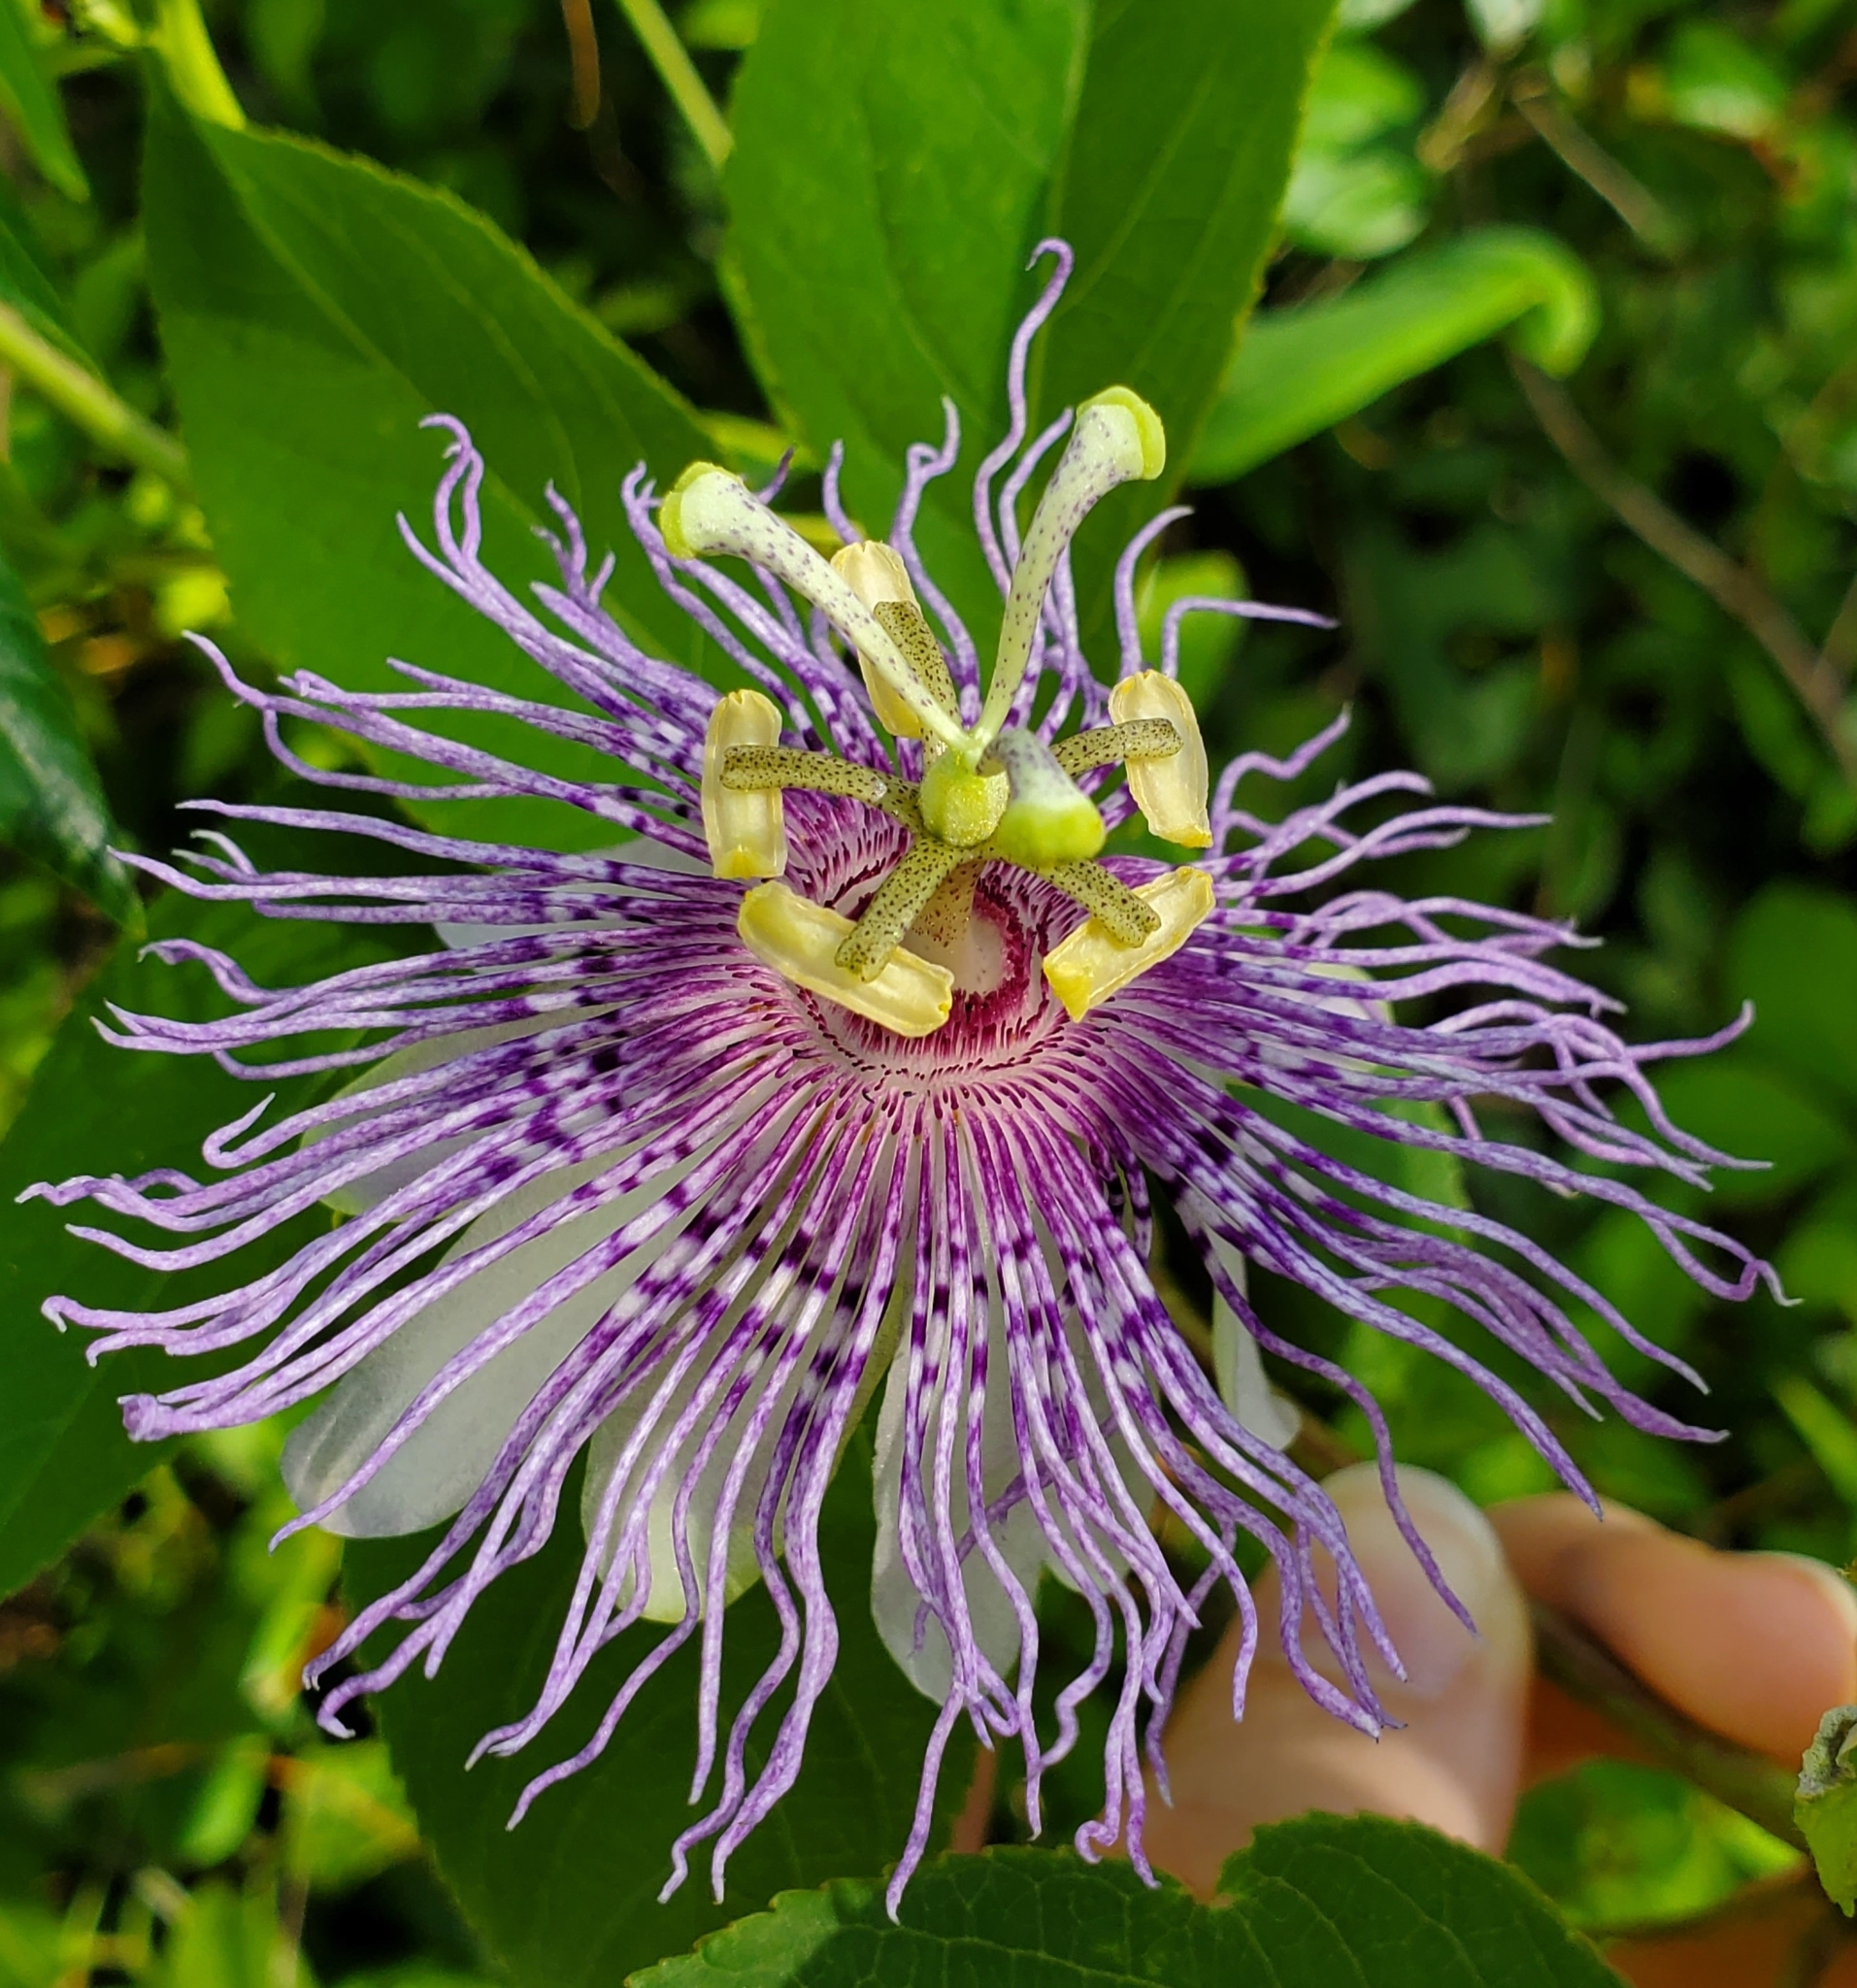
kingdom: Plantae
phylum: Tracheophyta
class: Magnoliopsida
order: Malpighiales
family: Passifloraceae
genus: Passiflora
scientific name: Passiflora incarnata
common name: Apricot-vine
